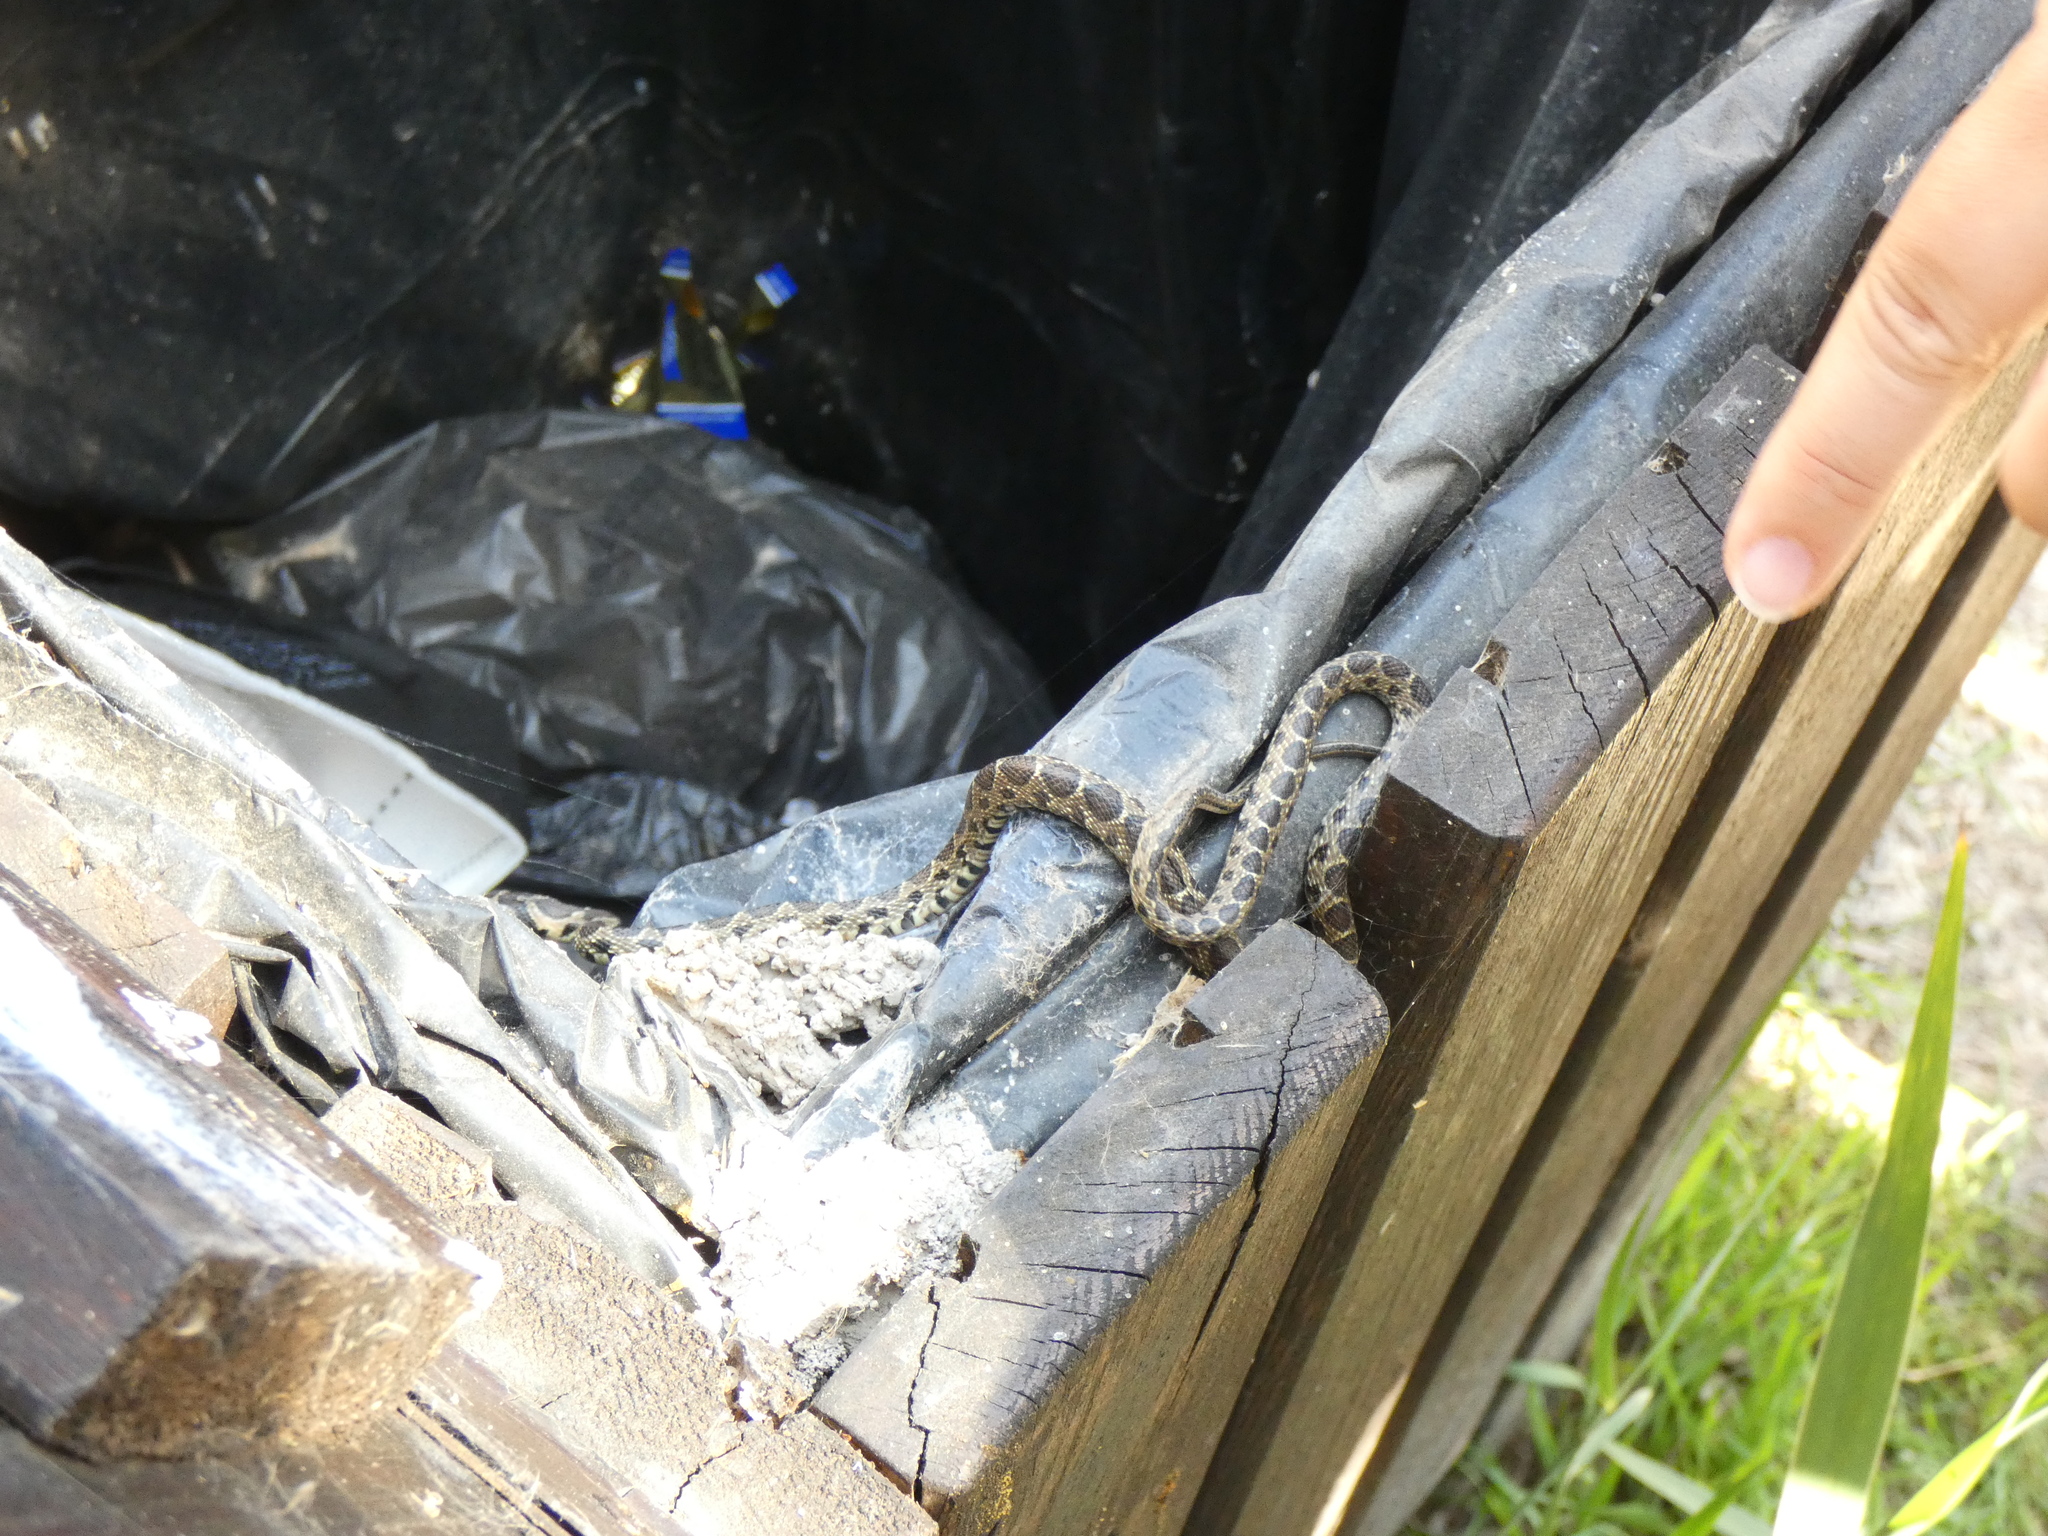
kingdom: Animalia
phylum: Chordata
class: Squamata
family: Colubridae
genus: Hemorrhois
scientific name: Hemorrhois hippocrepis
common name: Horseshoe whip snake
